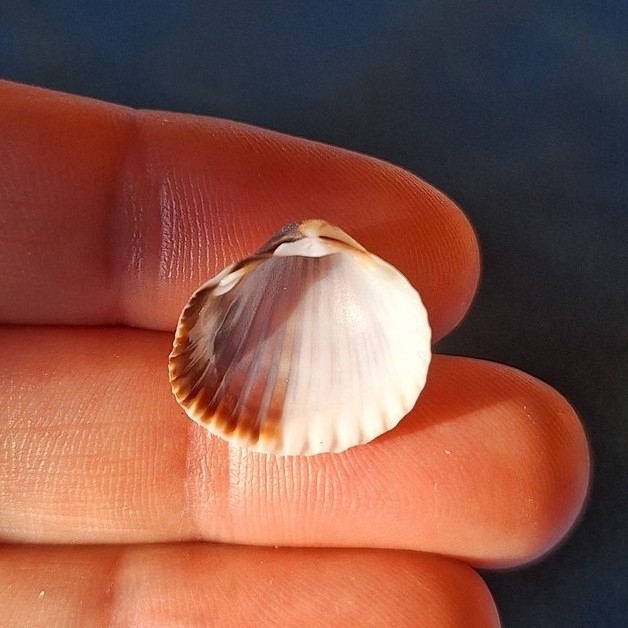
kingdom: Animalia
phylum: Mollusca
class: Bivalvia
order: Cardiida
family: Cardiidae
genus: Cerastoderma
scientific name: Cerastoderma glaucum
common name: Lagoon cockle
